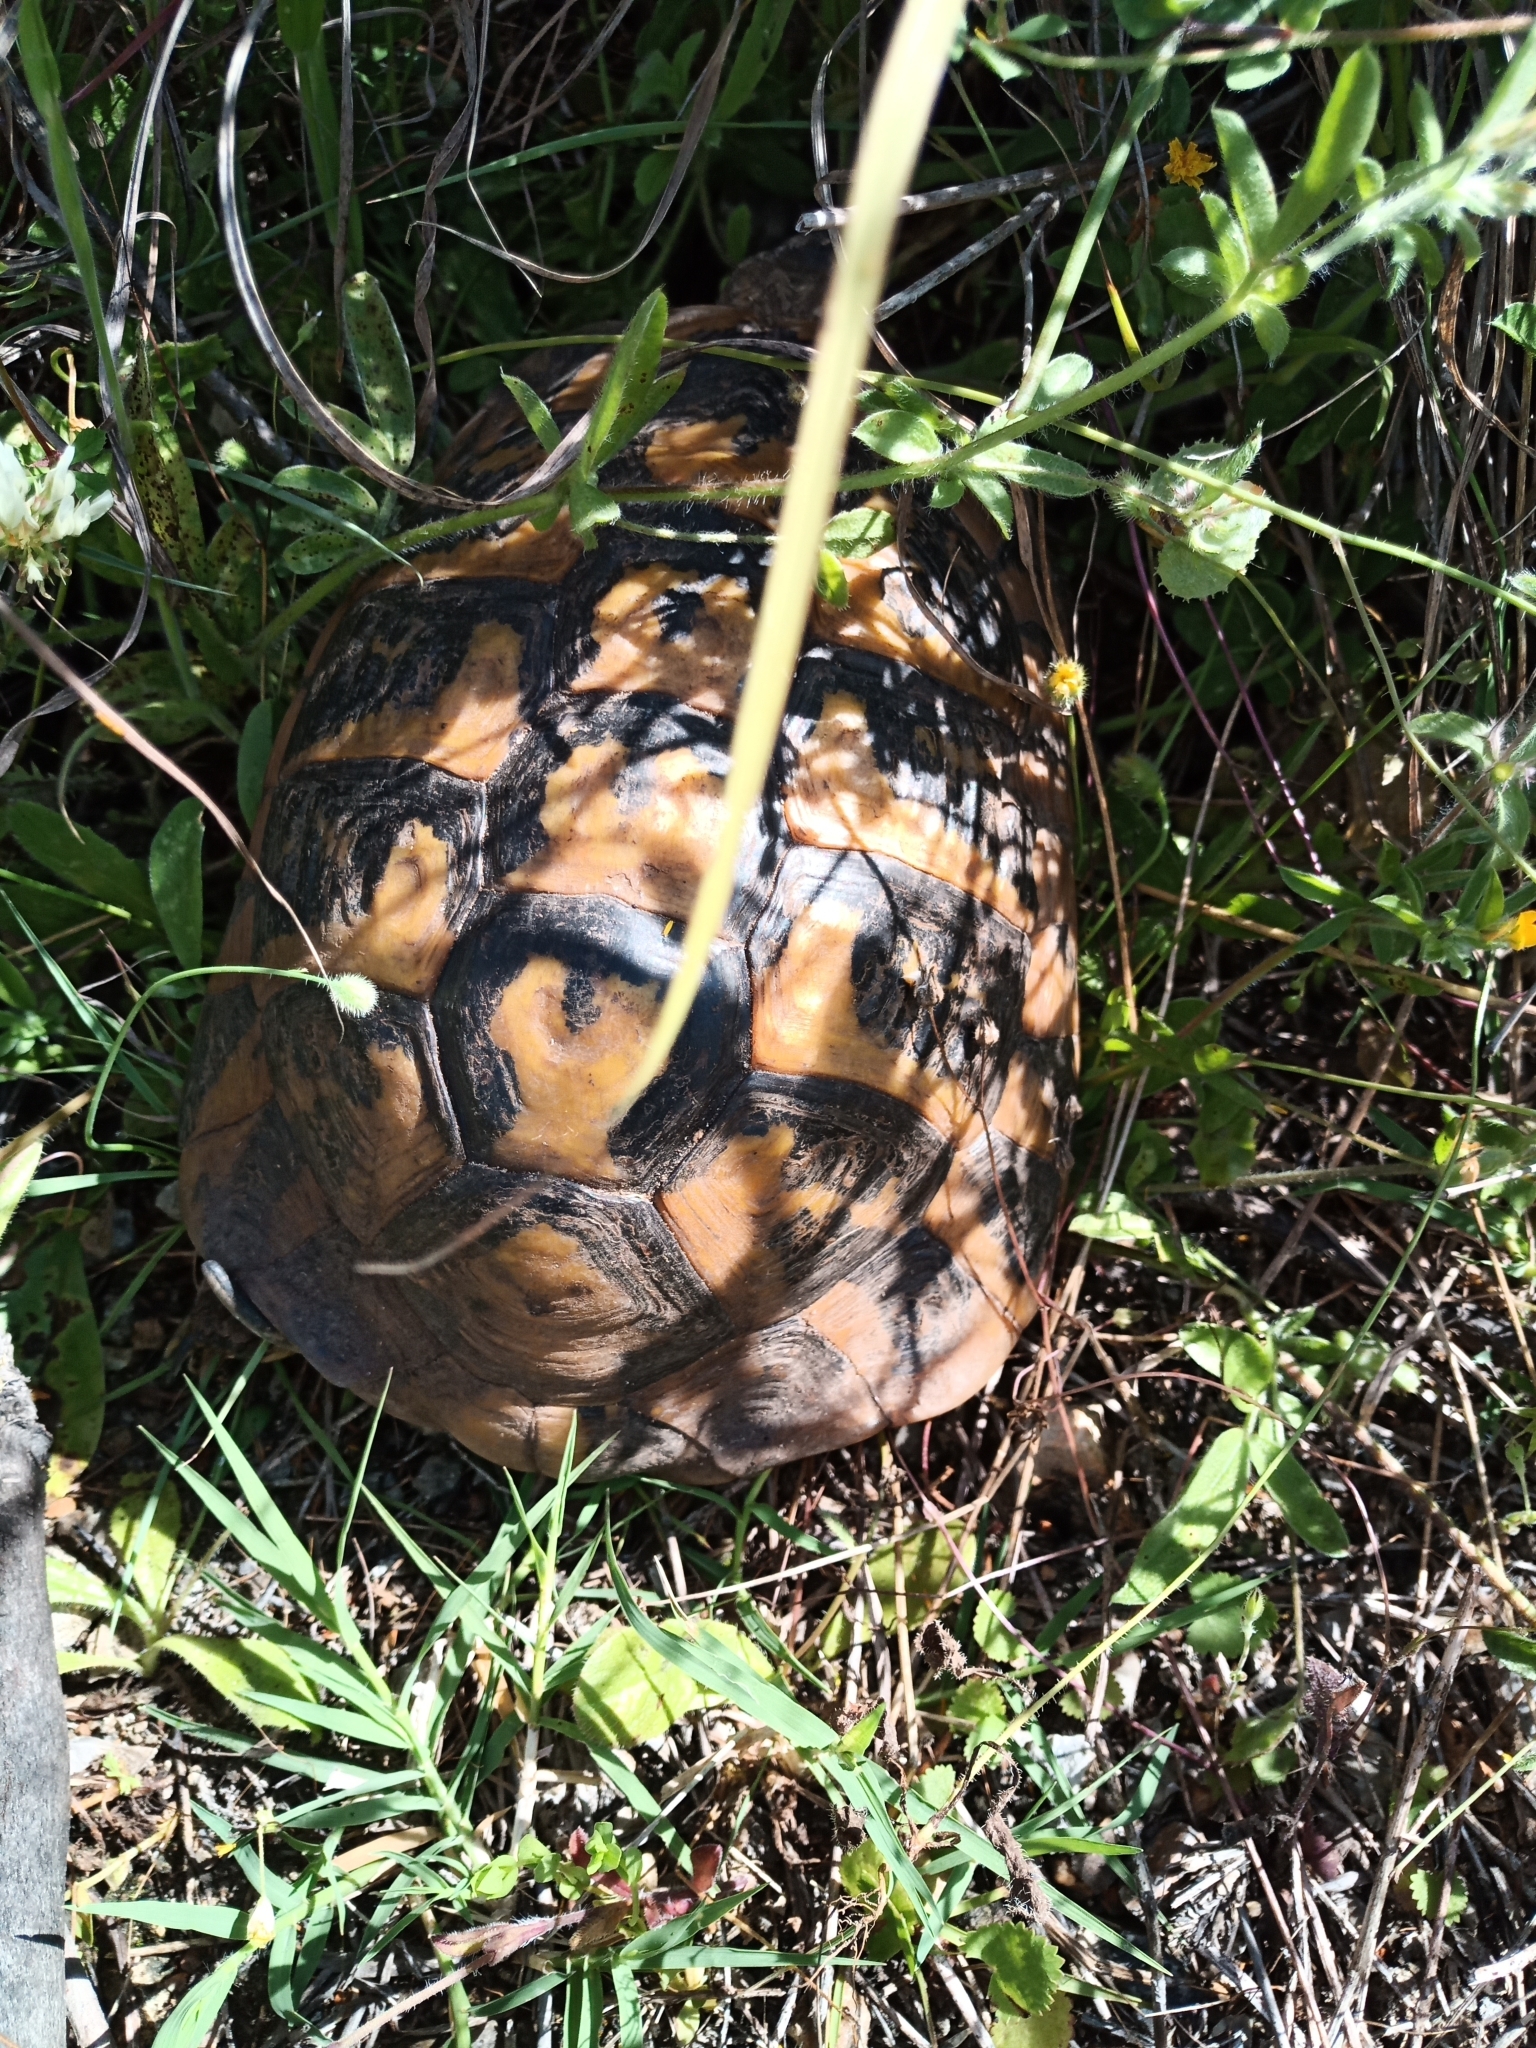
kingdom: Animalia
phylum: Chordata
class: Testudines
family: Testudinidae
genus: Testudo
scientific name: Testudo hermanni
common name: Hermann's tortoise
